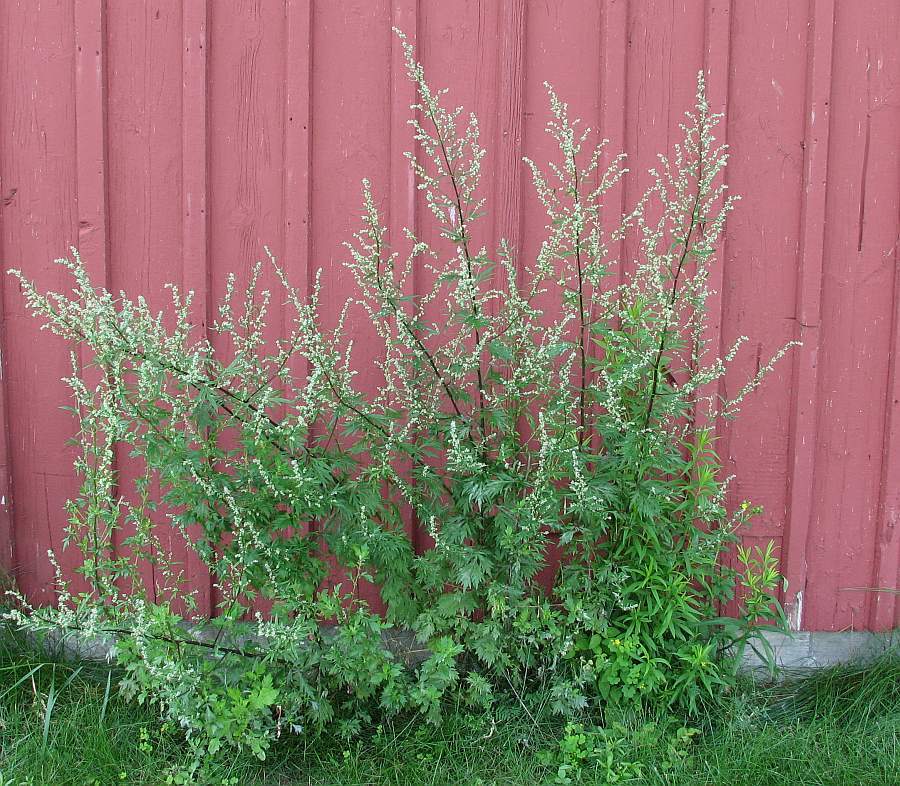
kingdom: Plantae
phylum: Tracheophyta
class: Magnoliopsida
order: Asterales
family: Asteraceae
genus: Artemisia
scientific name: Artemisia vulgaris
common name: Mugwort
